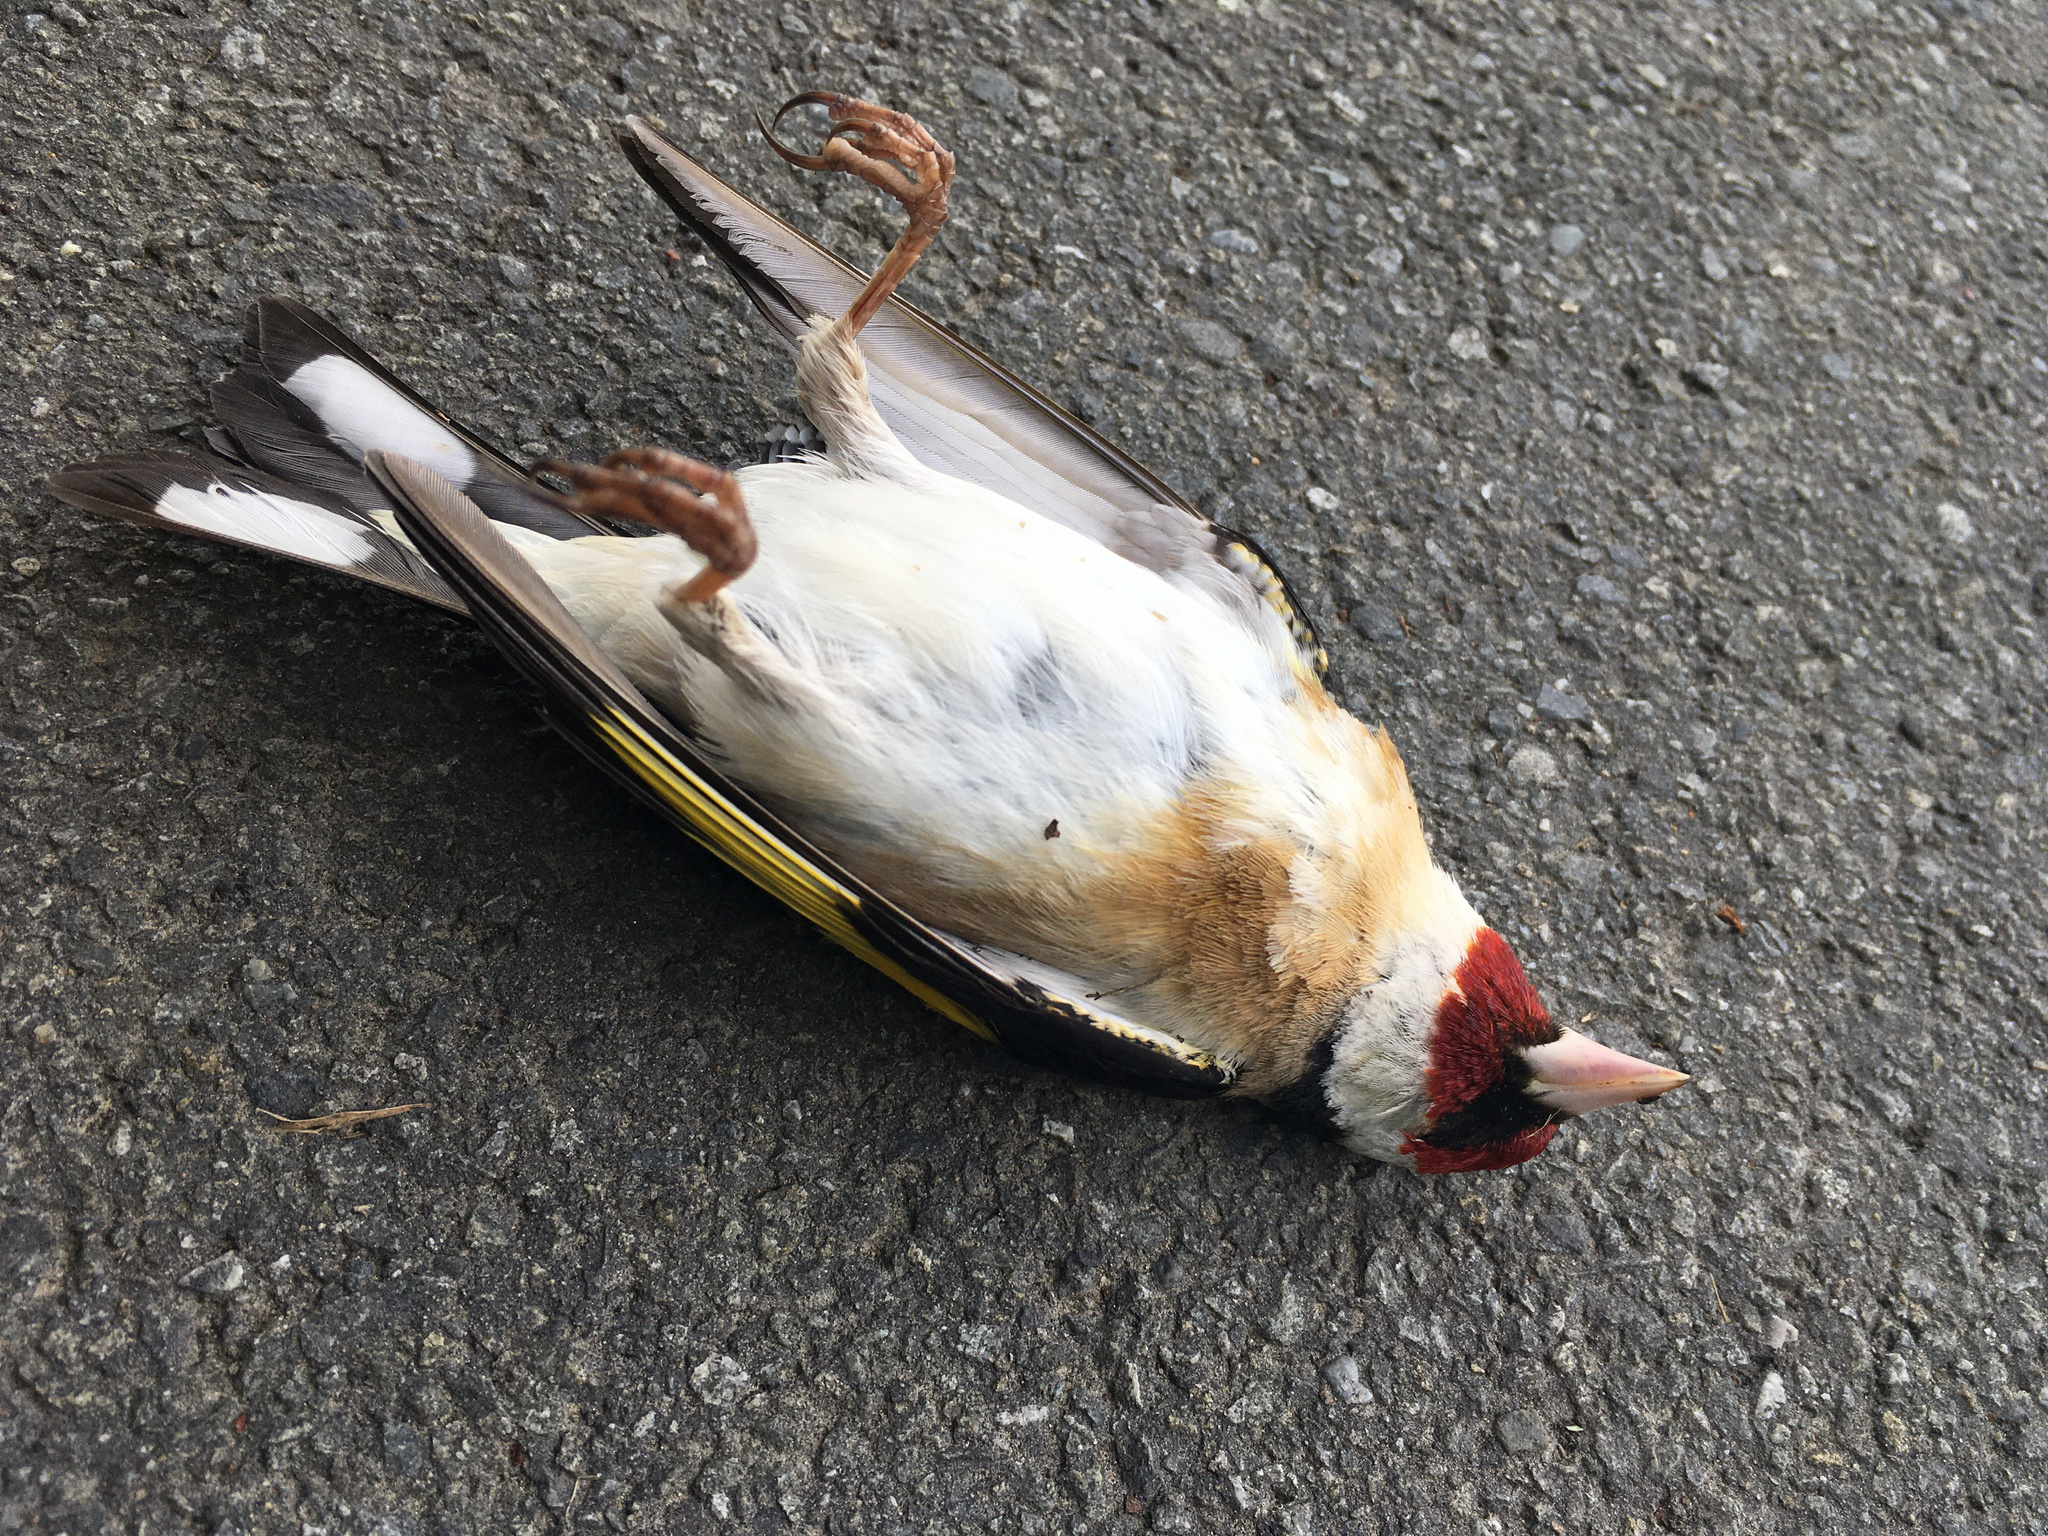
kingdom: Animalia
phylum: Chordata
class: Aves
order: Passeriformes
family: Fringillidae
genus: Carduelis
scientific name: Carduelis carduelis
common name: European goldfinch
